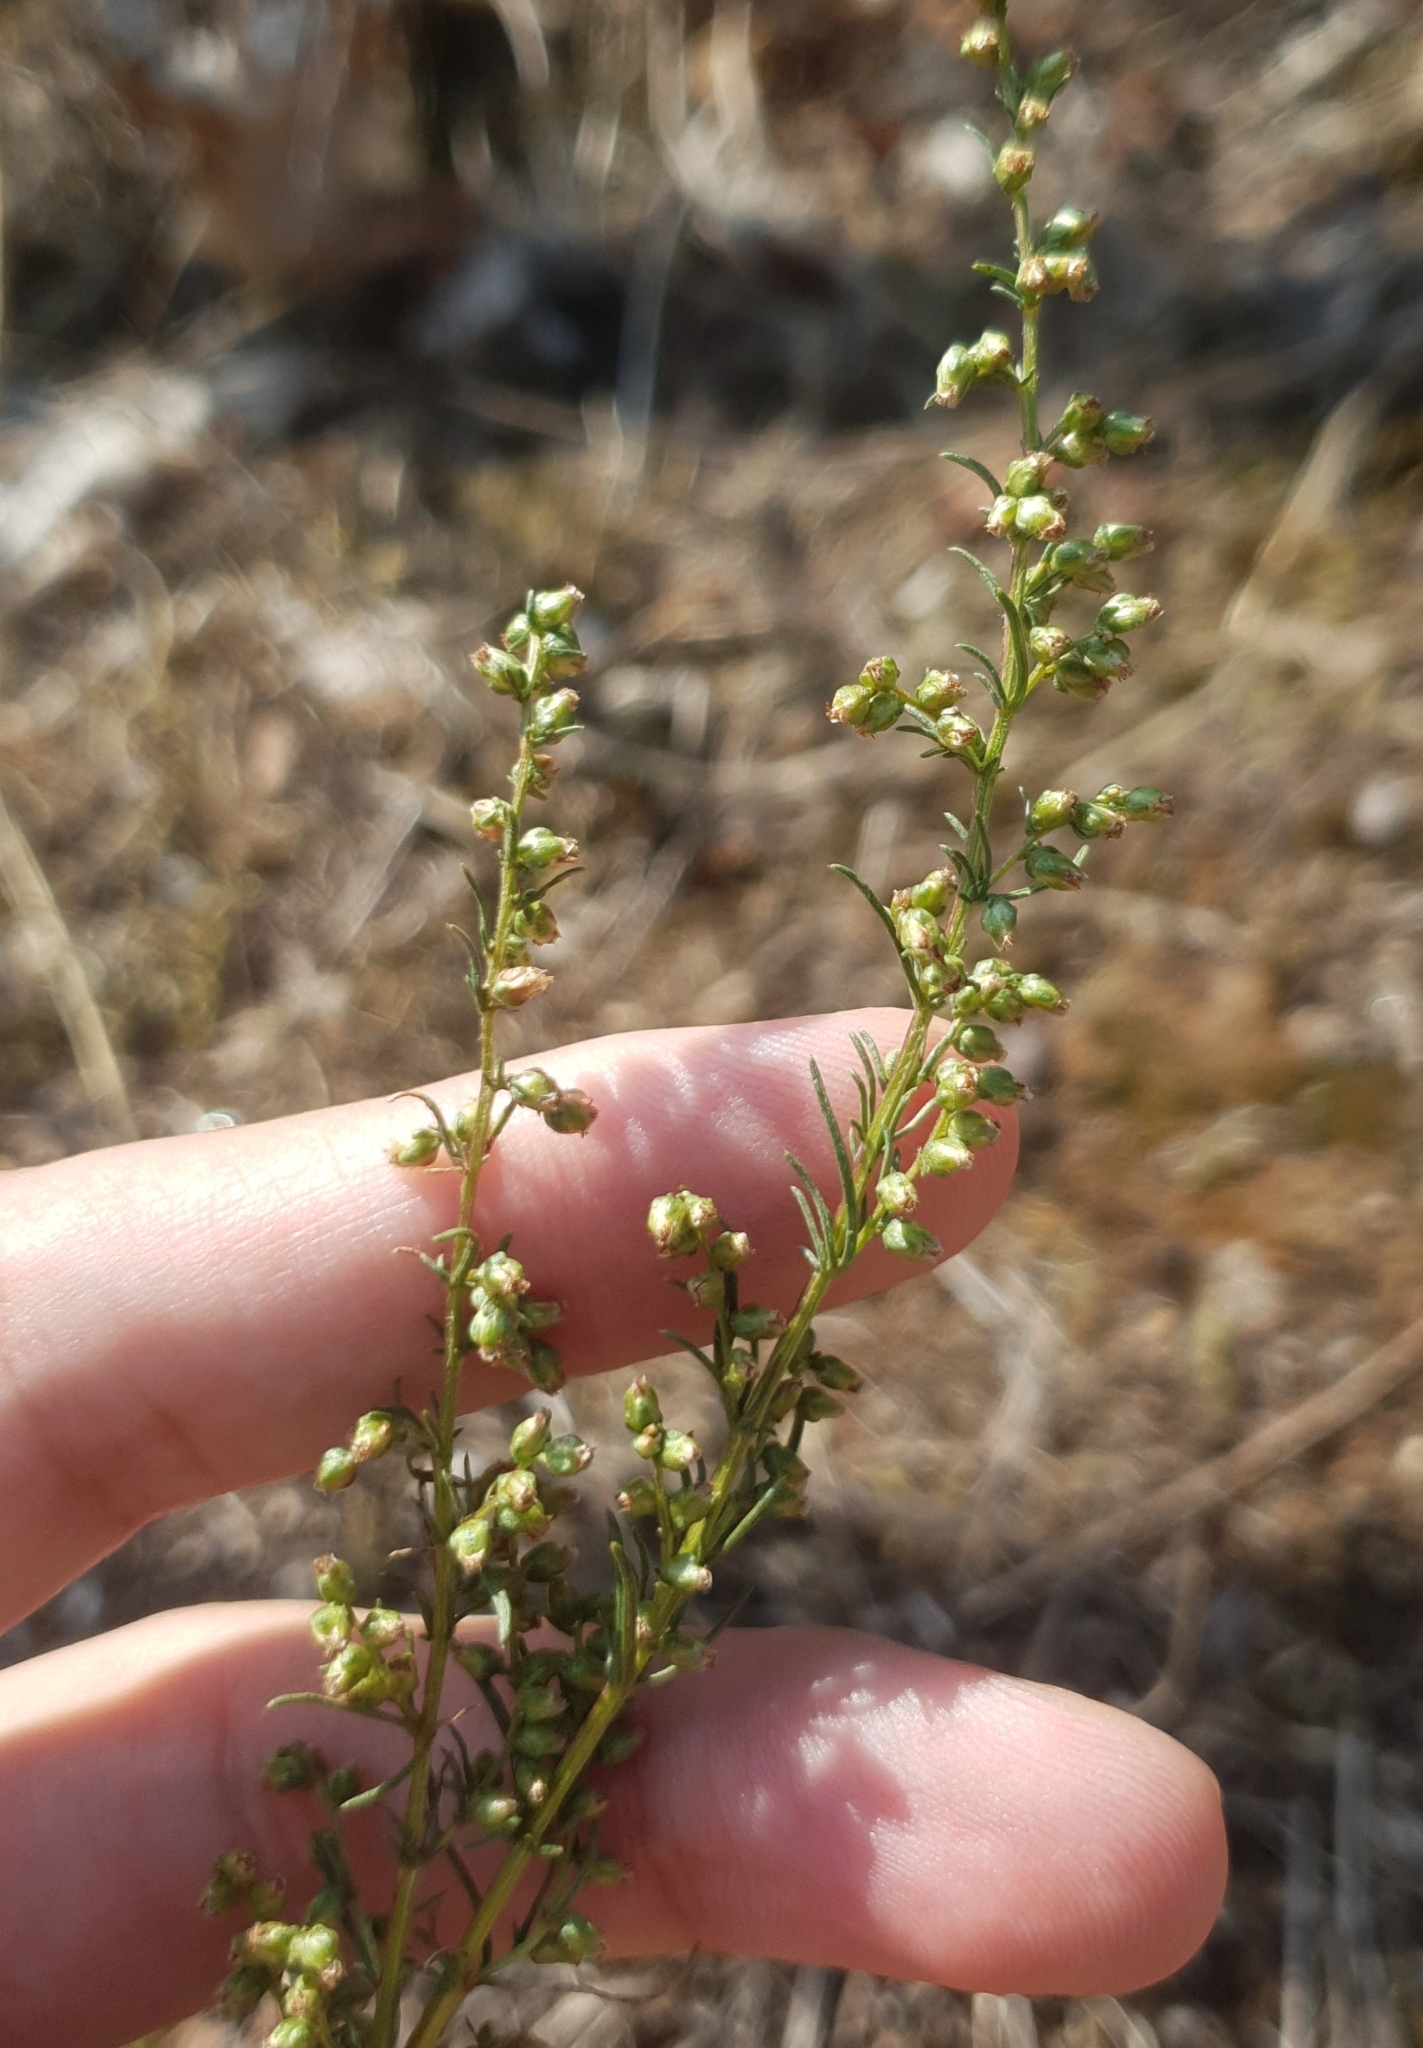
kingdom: Plantae
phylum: Tracheophyta
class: Magnoliopsida
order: Asterales
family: Asteraceae
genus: Artemisia
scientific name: Artemisia campestris
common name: Field wormwood
